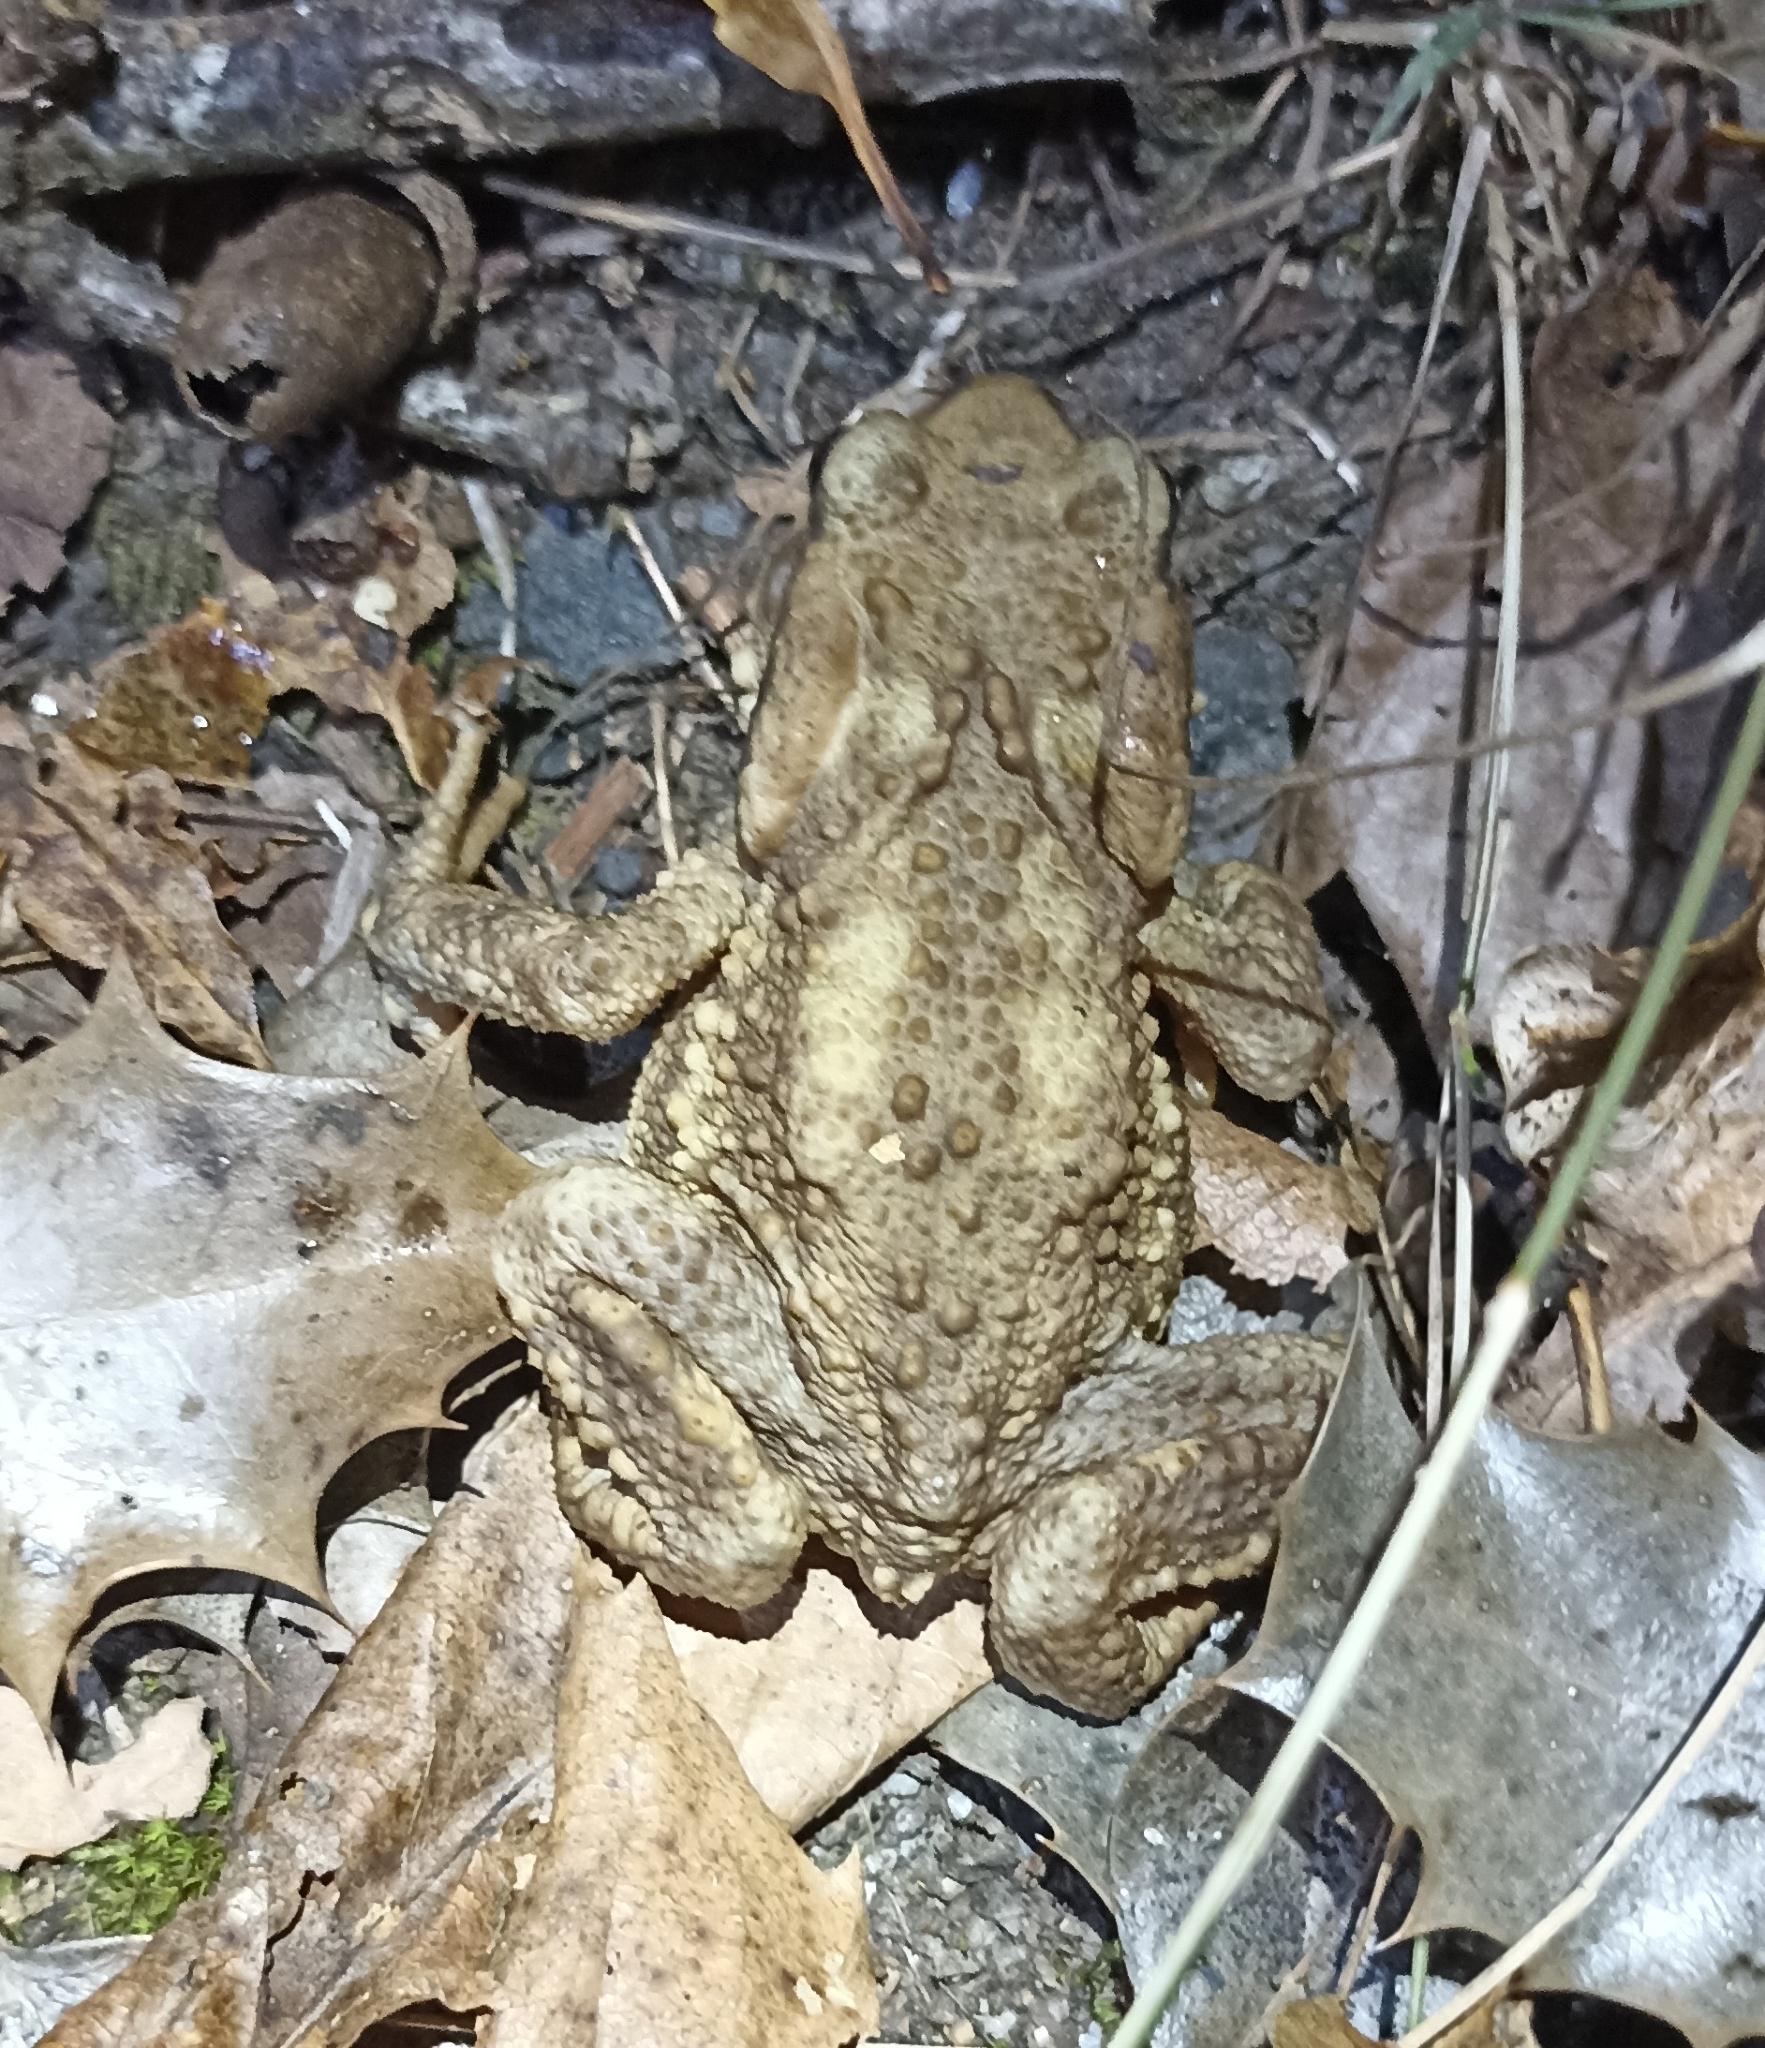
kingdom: Animalia
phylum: Chordata
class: Amphibia
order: Anura
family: Bufonidae
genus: Bufo
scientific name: Bufo spinosus
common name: Western common toad
